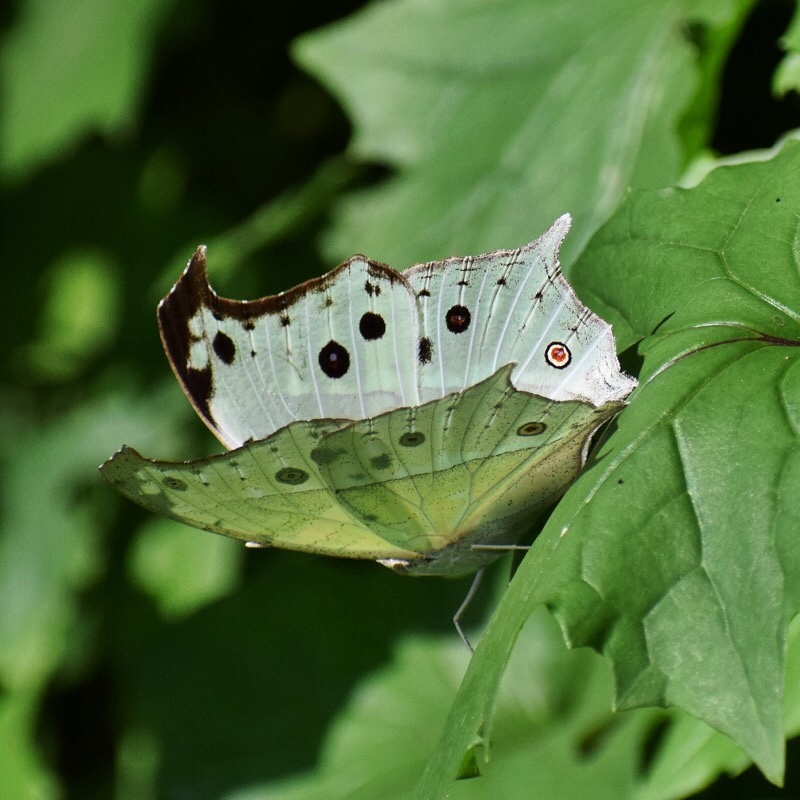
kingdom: Animalia
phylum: Arthropoda
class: Insecta
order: Lepidoptera
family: Nymphalidae
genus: Salamis
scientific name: Salamis Protogoniomorpha parhassus
